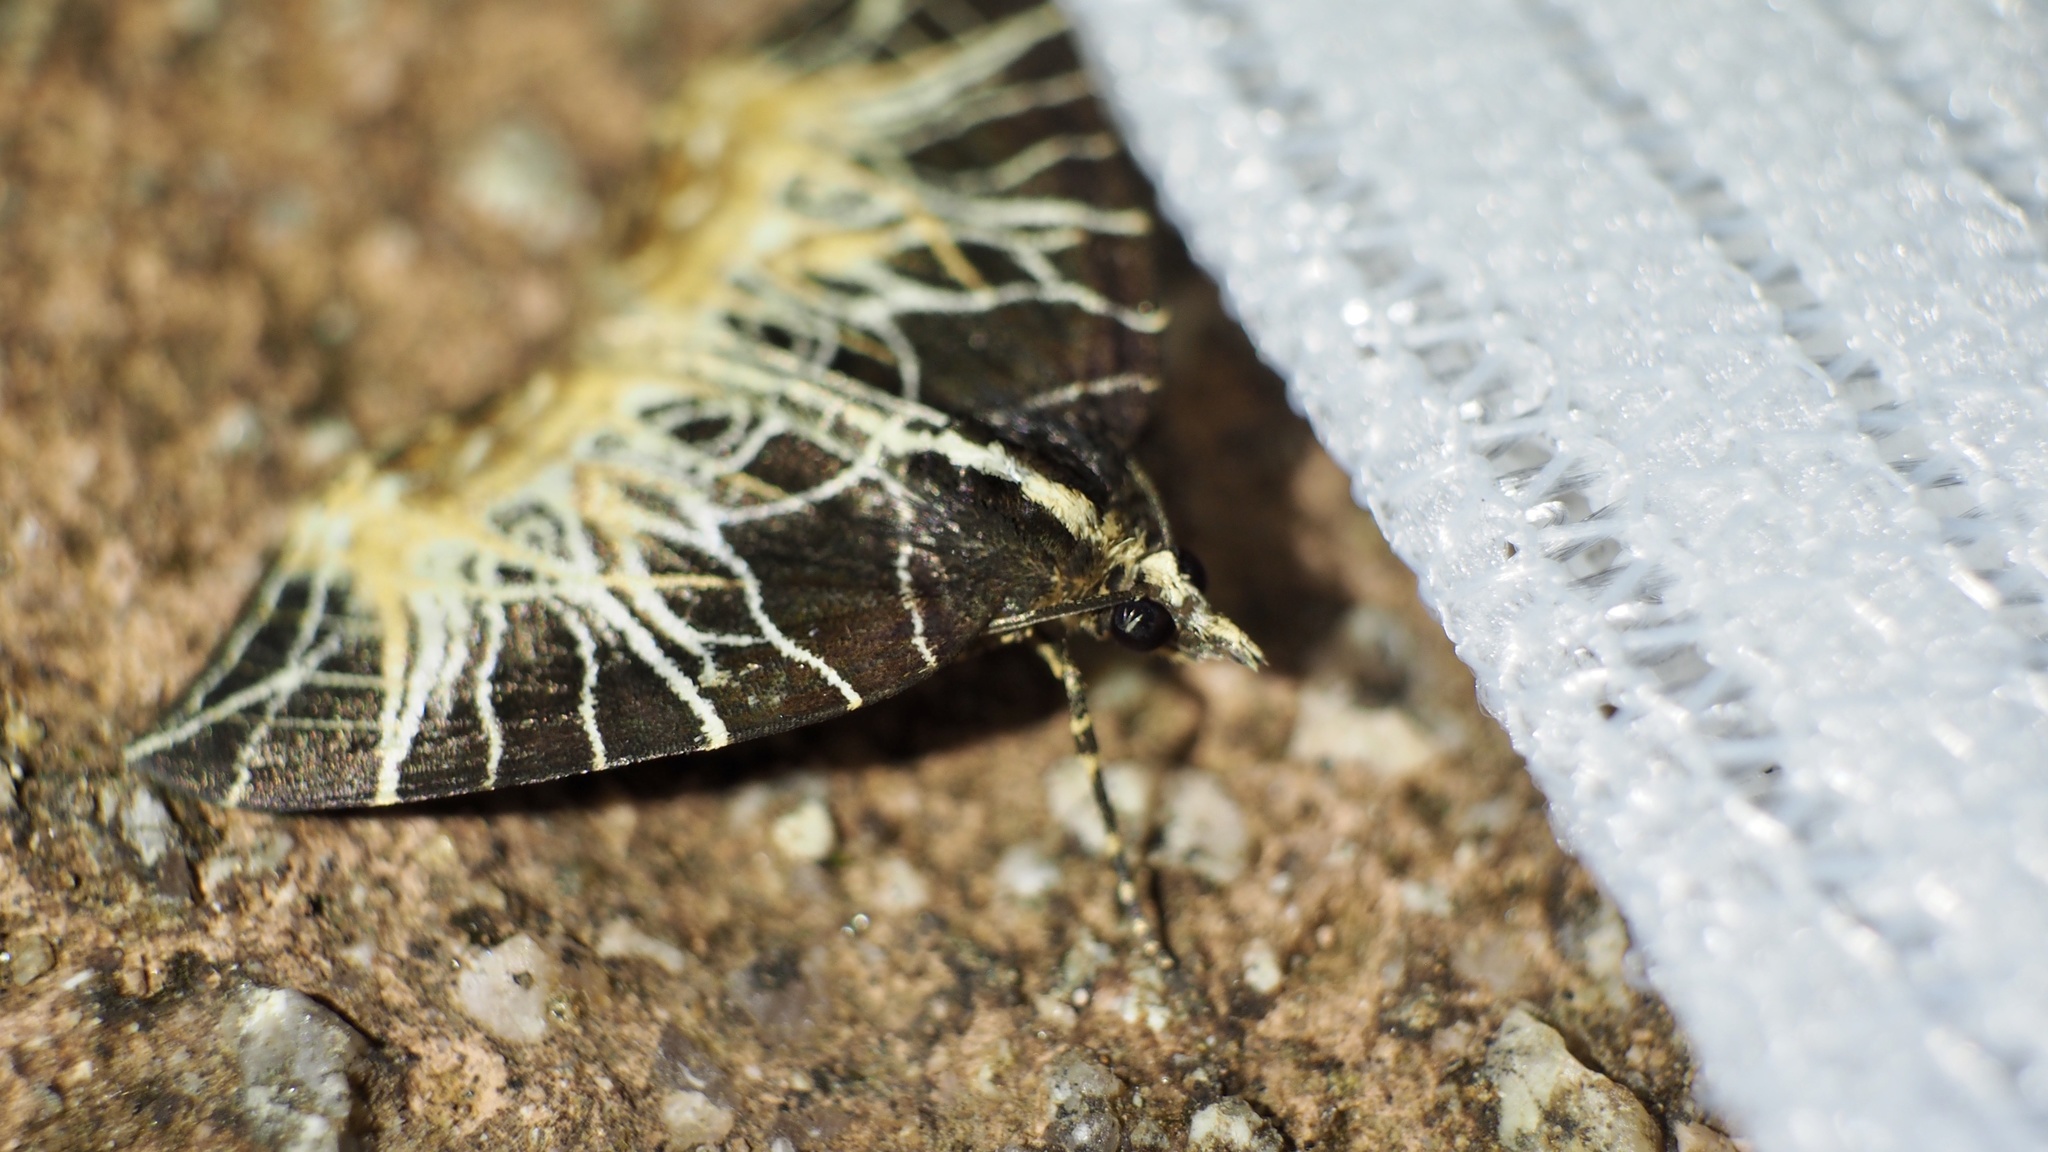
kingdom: Animalia
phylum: Arthropoda
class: Insecta
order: Lepidoptera
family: Geometridae
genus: Evecliptopera
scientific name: Evecliptopera illitata
